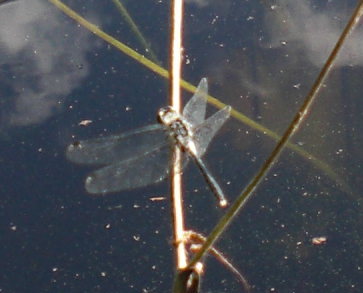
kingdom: Animalia
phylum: Arthropoda
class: Insecta
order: Odonata
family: Libellulidae
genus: Leucorrhinia
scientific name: Leucorrhinia albifrons
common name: Dark whiteface
